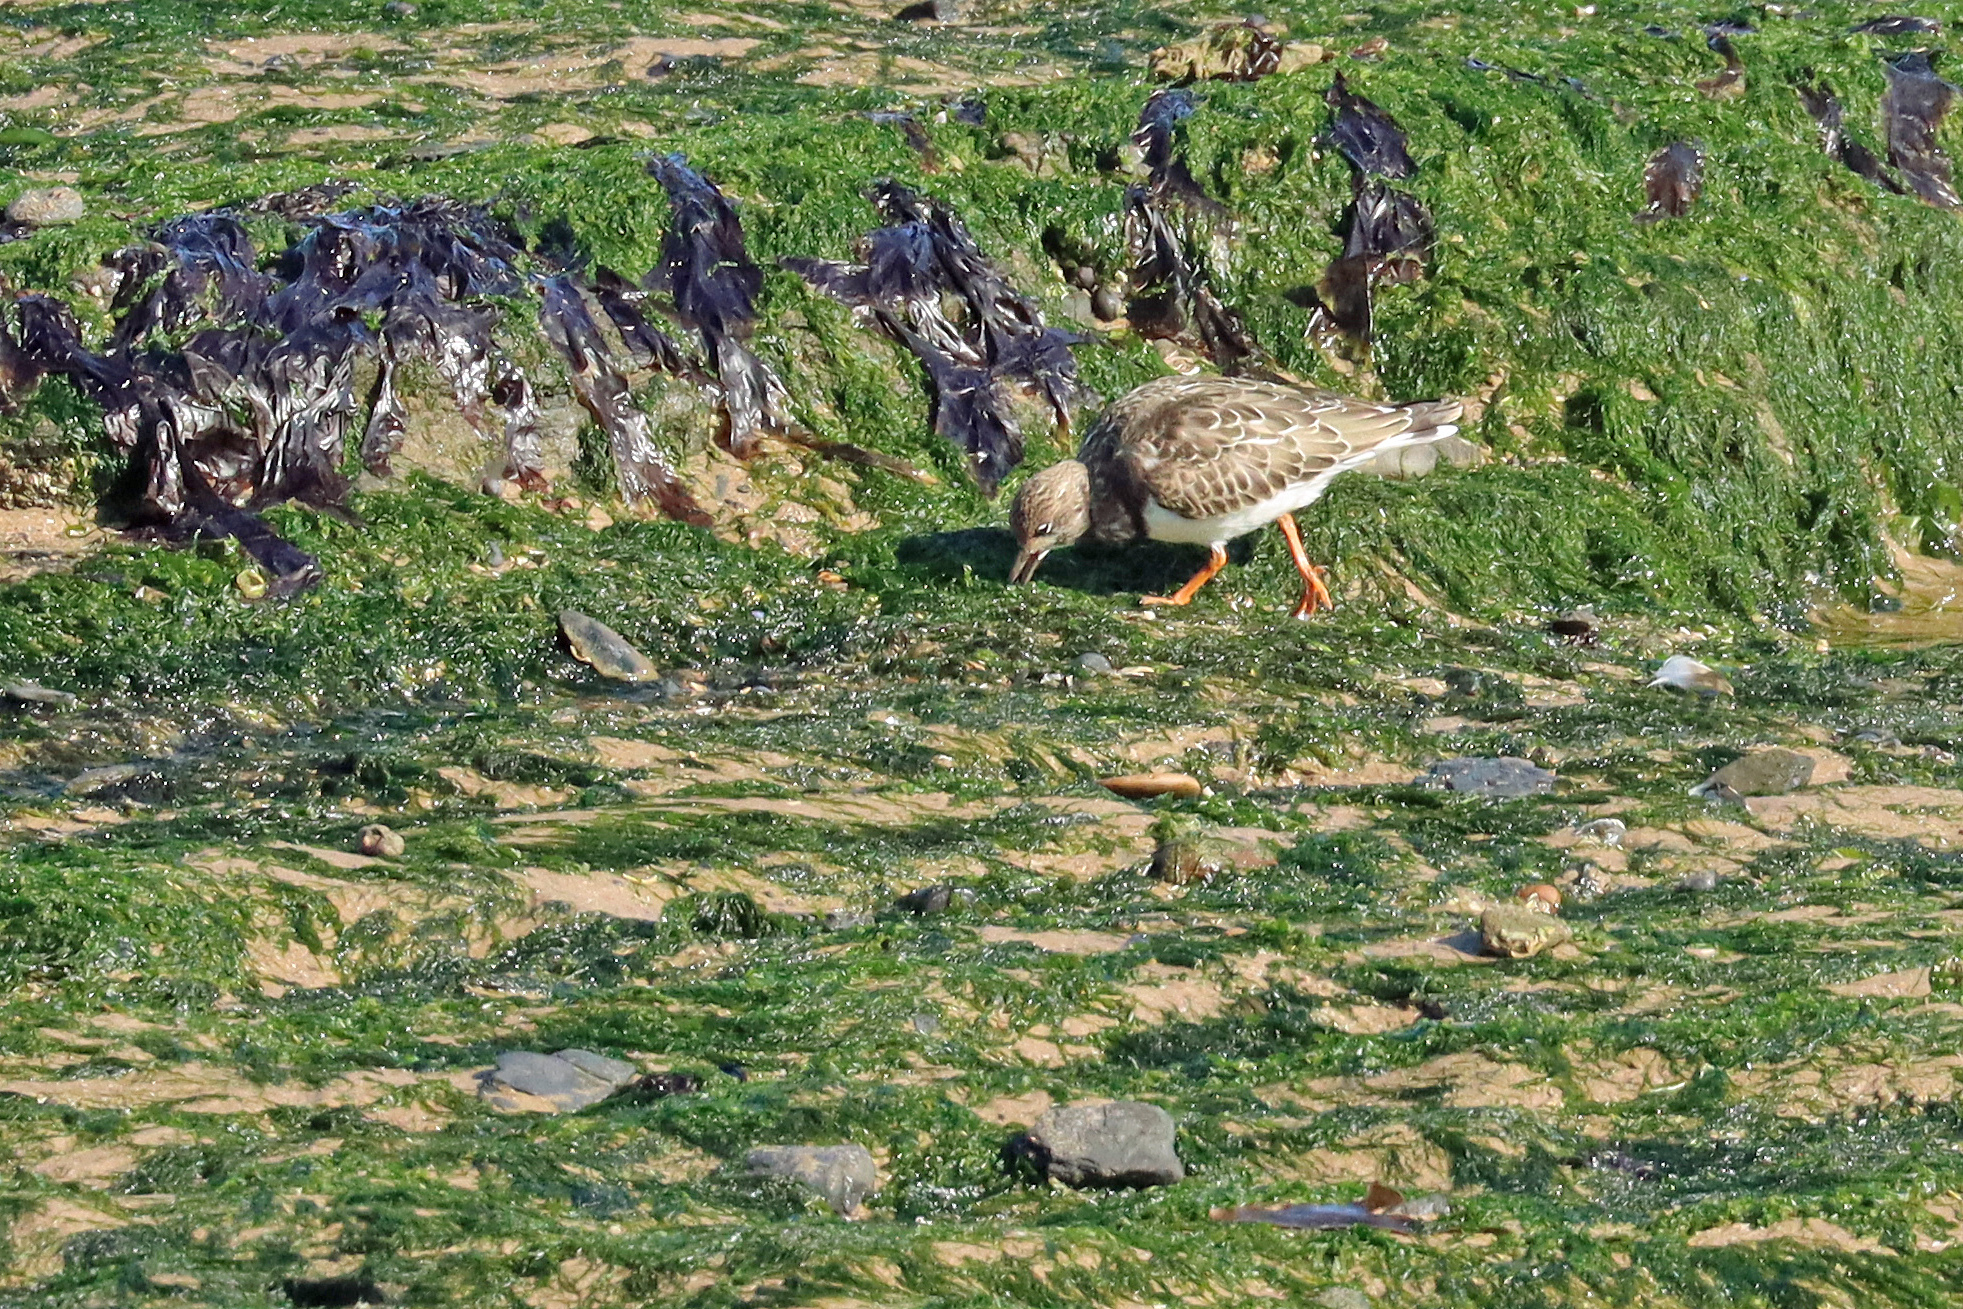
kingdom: Animalia
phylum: Chordata
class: Aves
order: Charadriiformes
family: Scolopacidae
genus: Arenaria
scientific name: Arenaria interpres
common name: Ruddy turnstone
